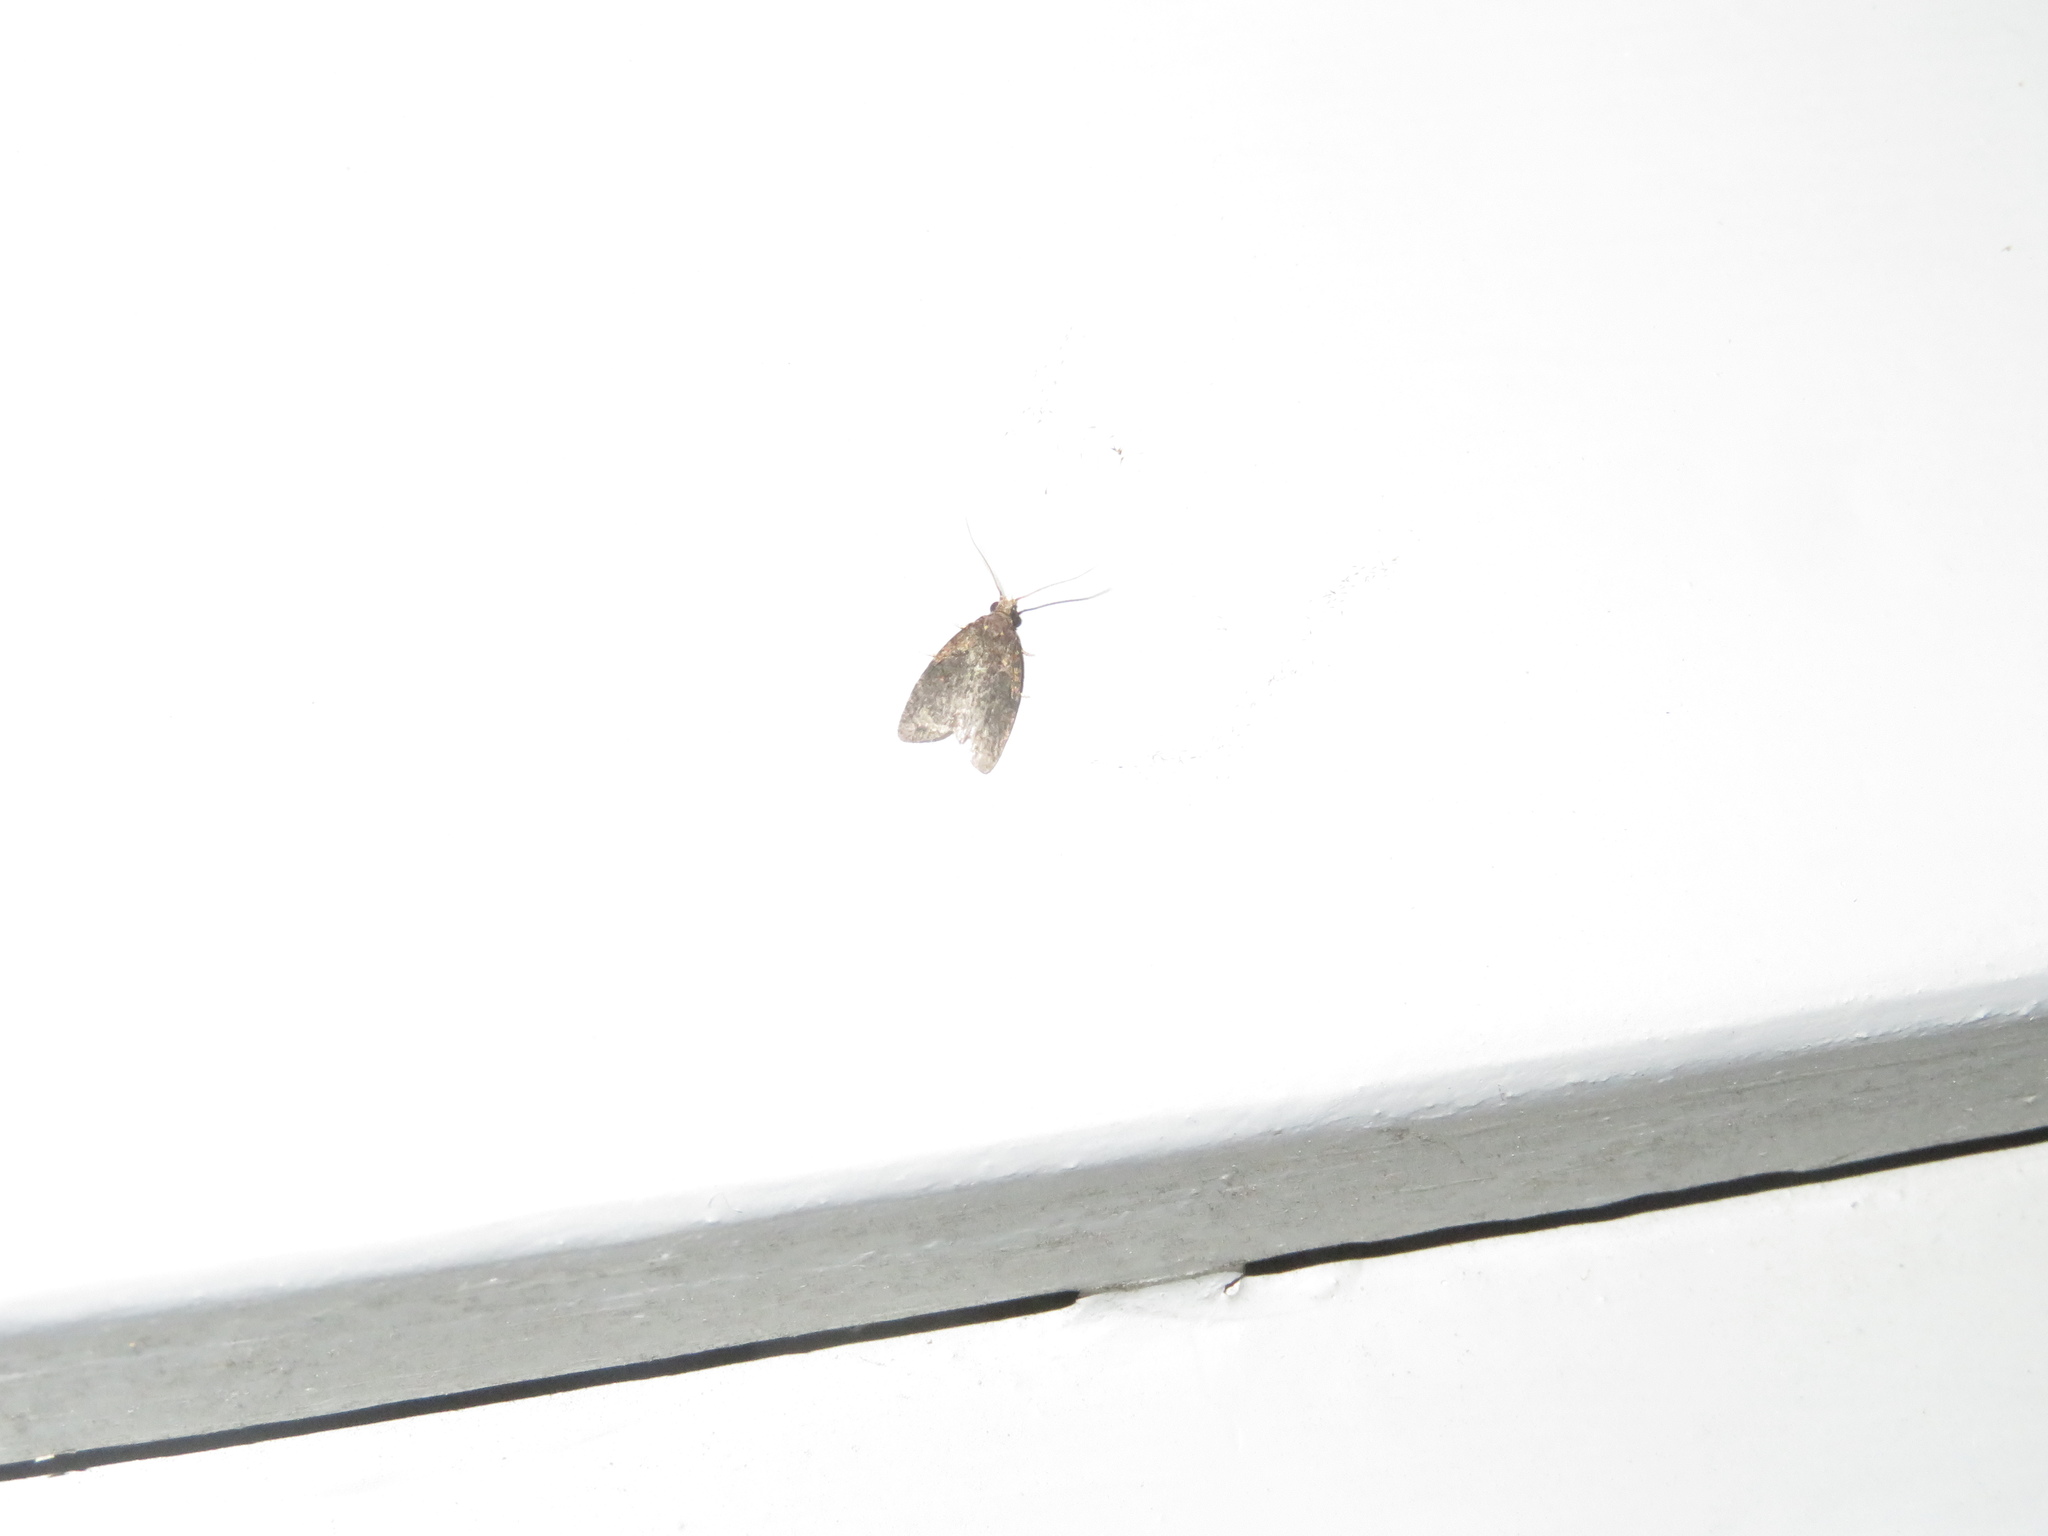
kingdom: Animalia
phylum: Arthropoda
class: Insecta
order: Lepidoptera
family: Tortricidae
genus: Capua
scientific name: Capua intractana
